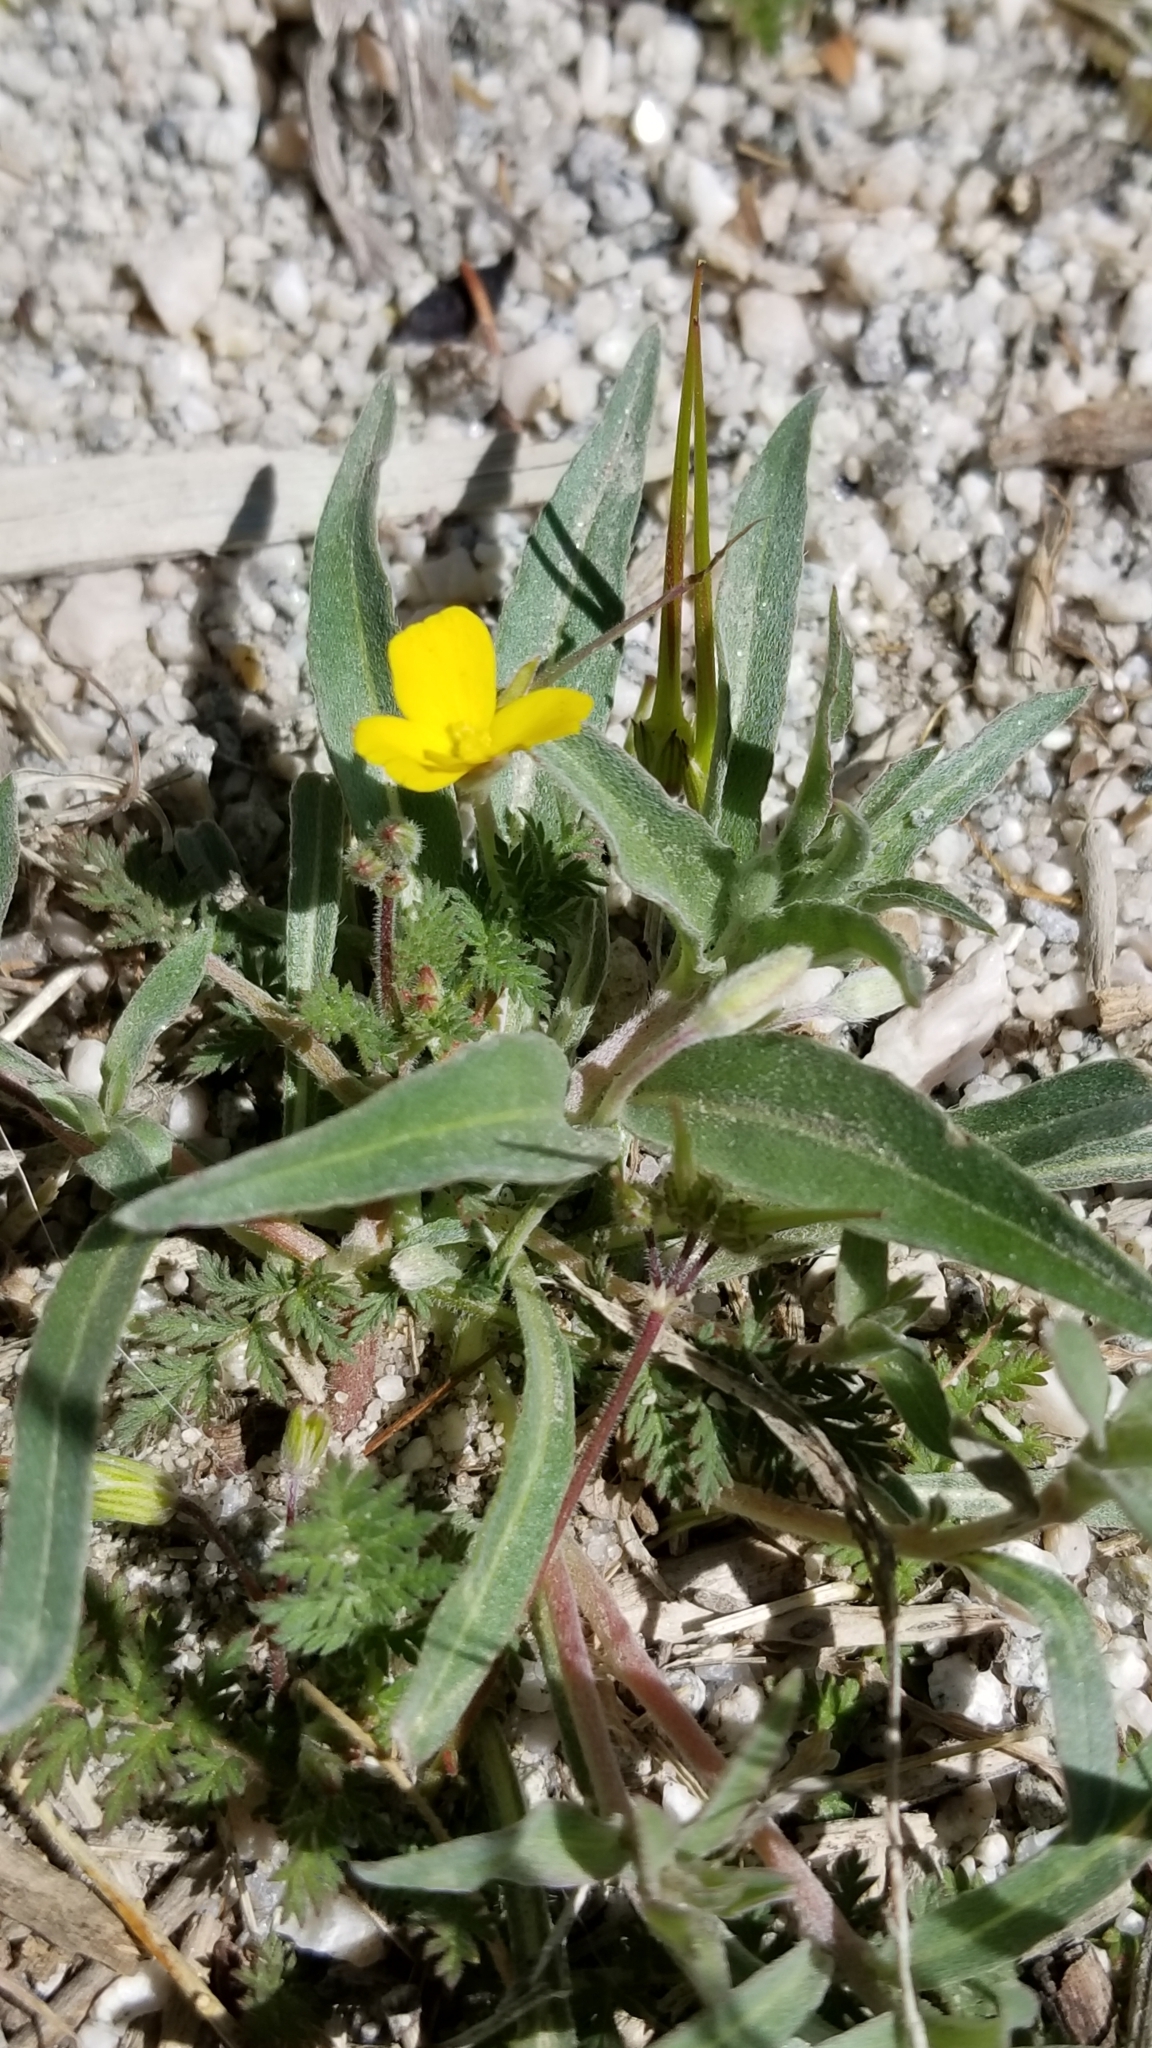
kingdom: Plantae
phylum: Tracheophyta
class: Magnoliopsida
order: Myrtales
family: Onagraceae
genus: Camissoniopsis
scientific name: Camissoniopsis pallida
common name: Paleyellow suncup
